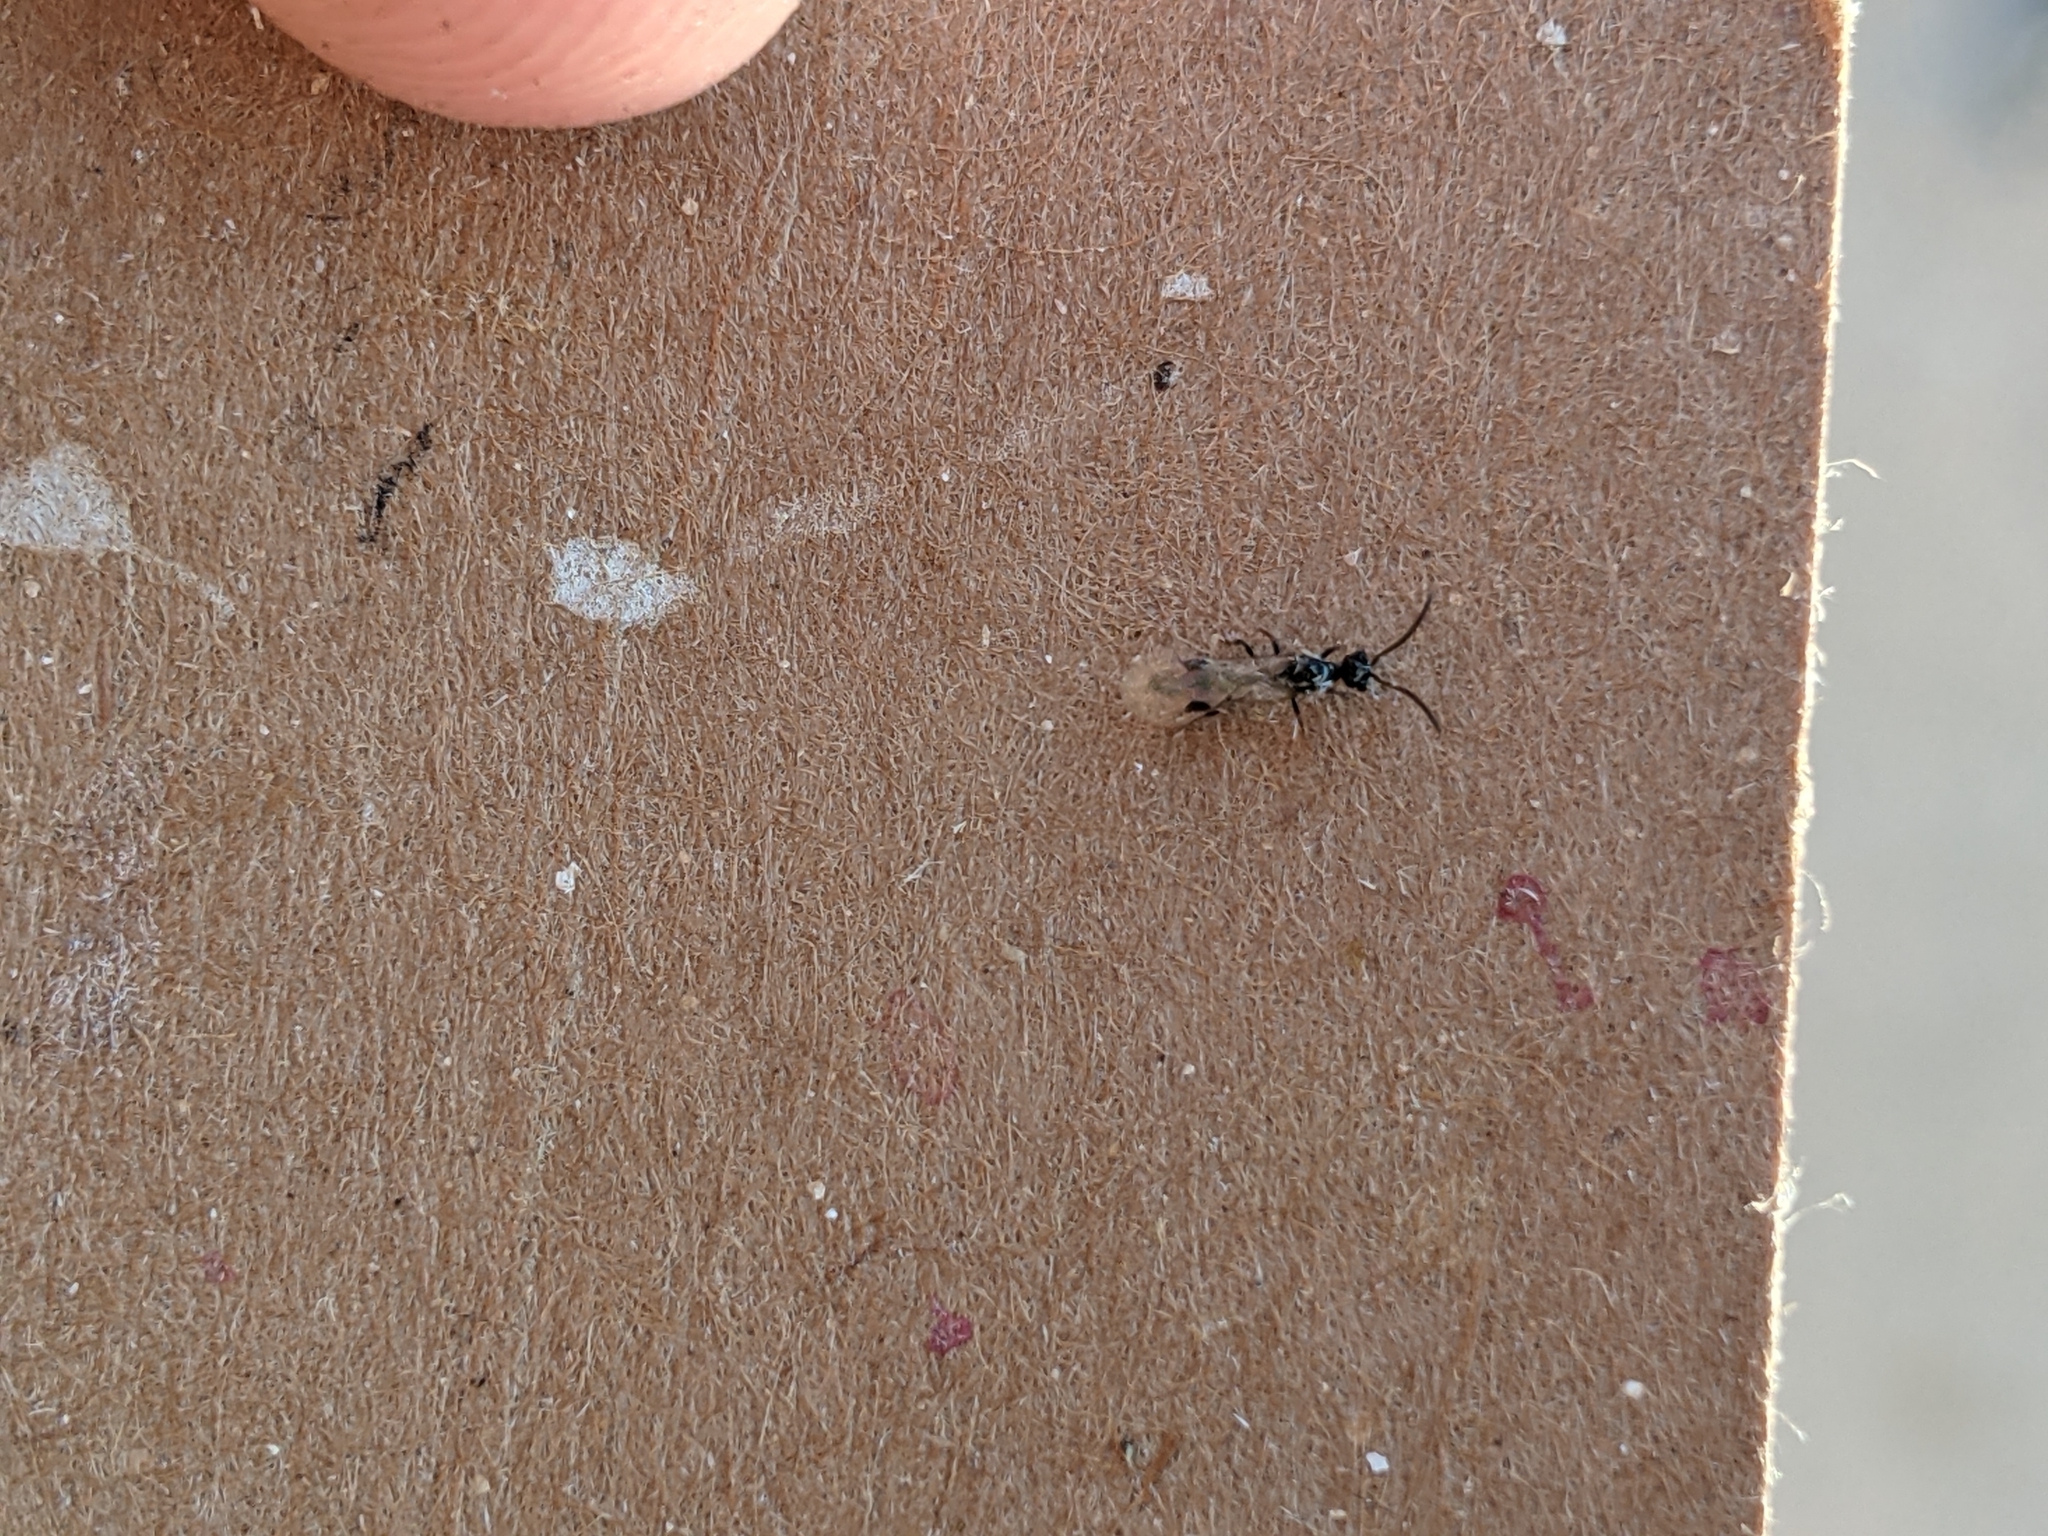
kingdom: Animalia
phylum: Arthropoda
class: Insecta
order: Hymenoptera
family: Formicidae
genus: Acanthostichus
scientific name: Acanthostichus
